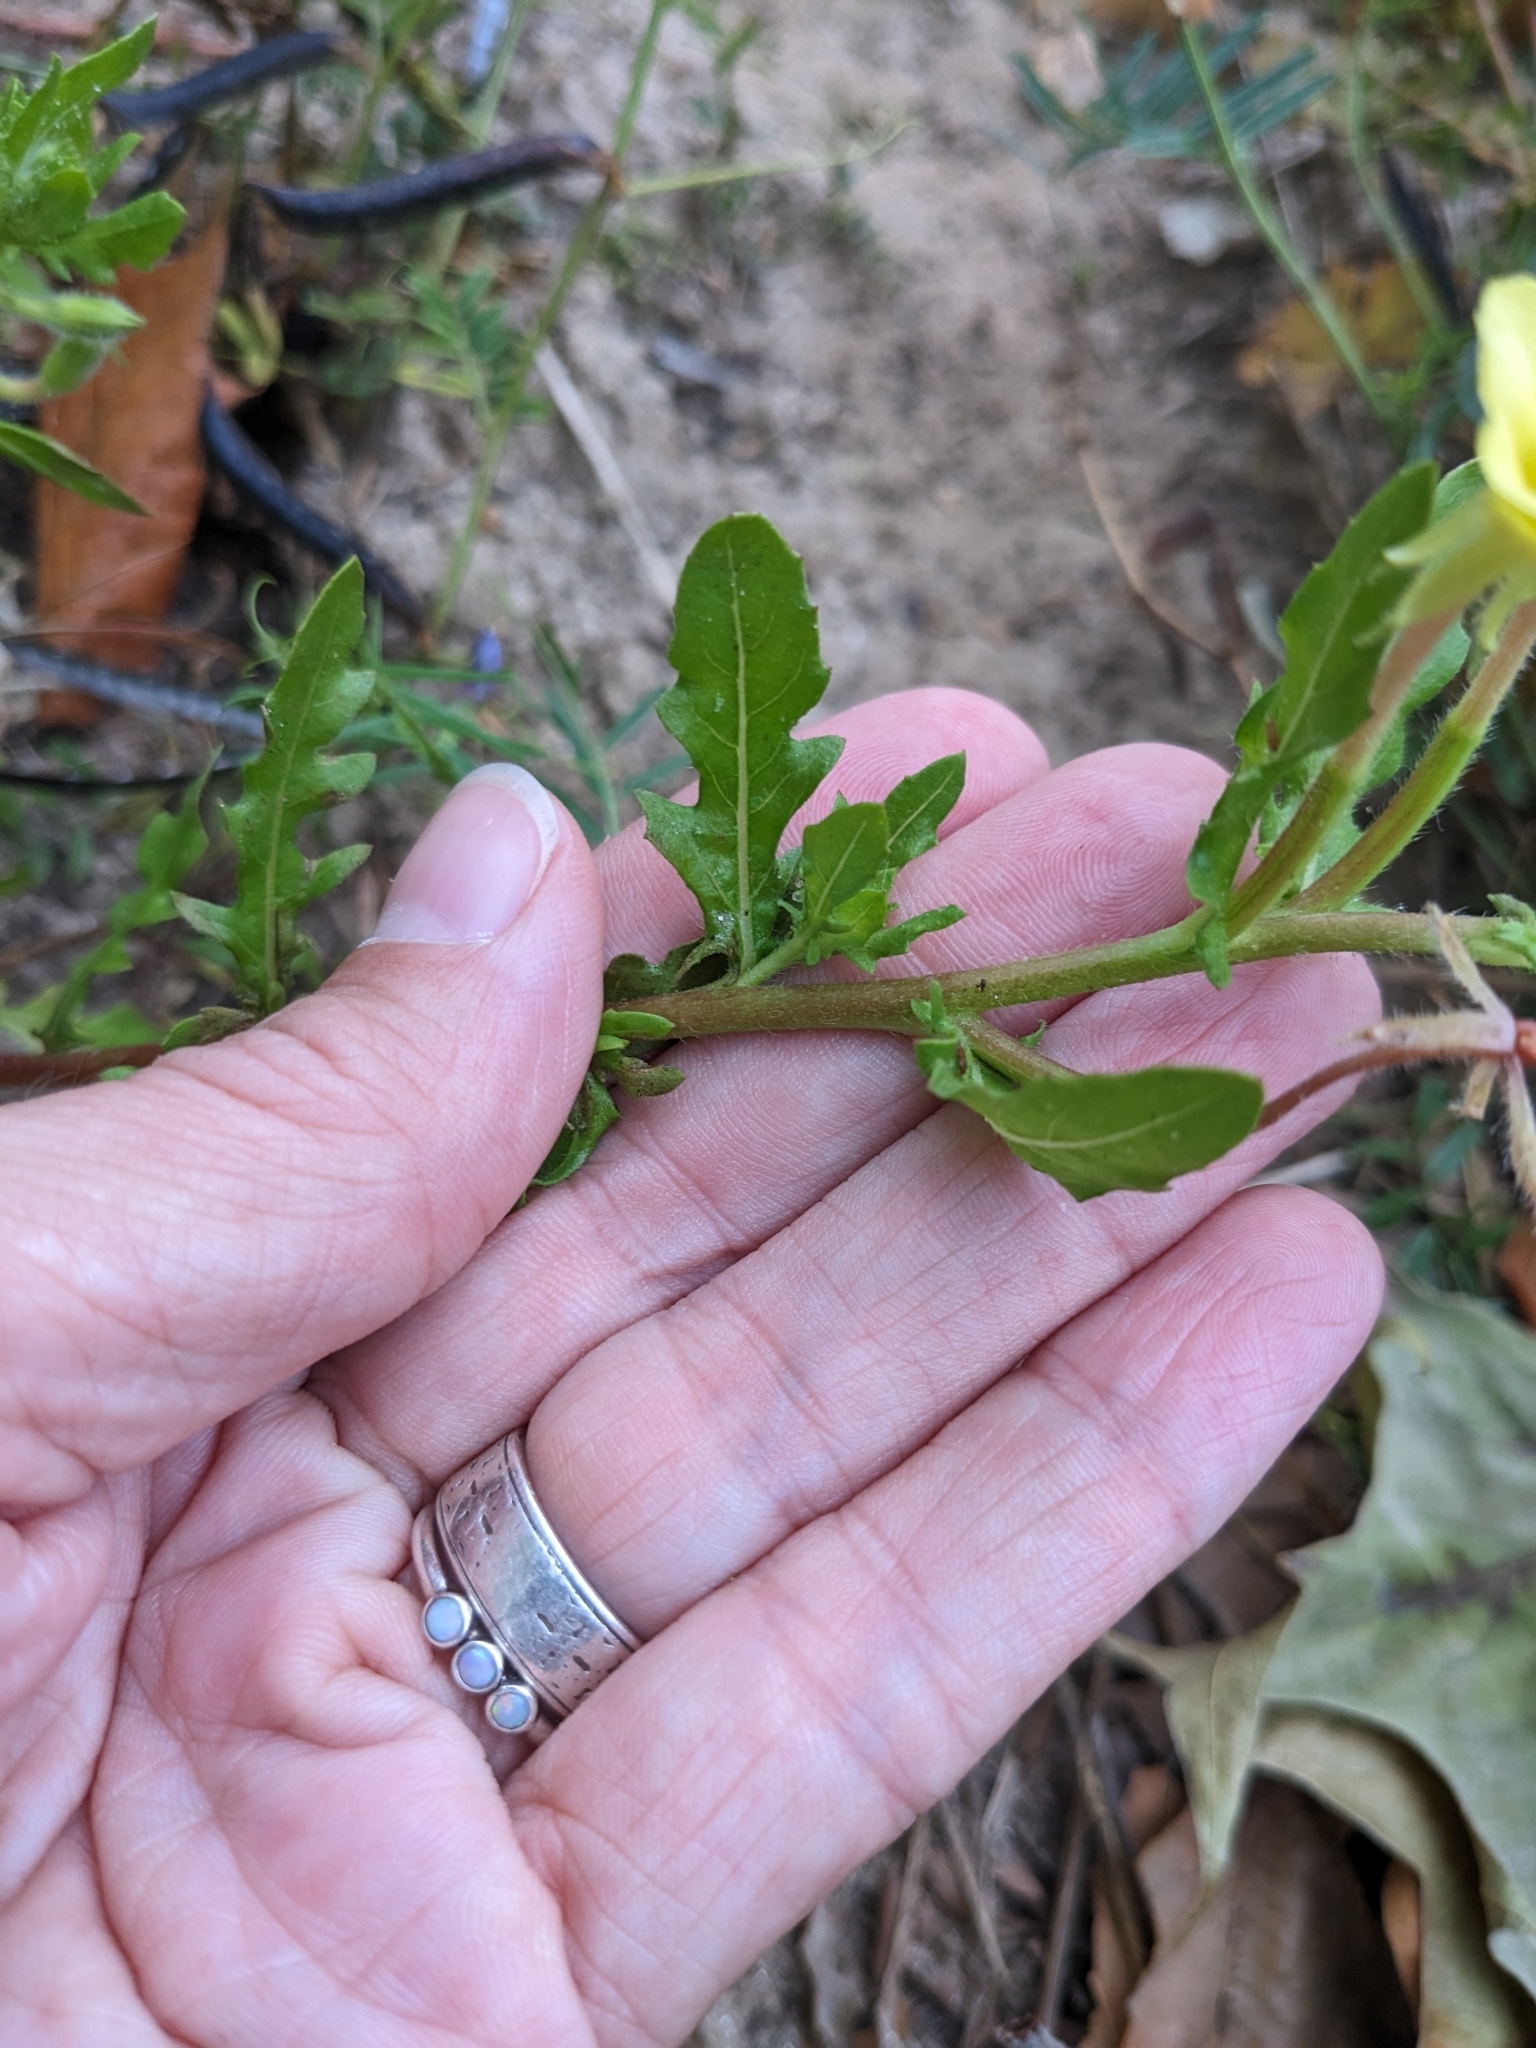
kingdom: Plantae
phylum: Tracheophyta
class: Magnoliopsida
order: Myrtales
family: Onagraceae
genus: Oenothera
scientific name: Oenothera laciniata
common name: Cut-leaved evening-primrose
